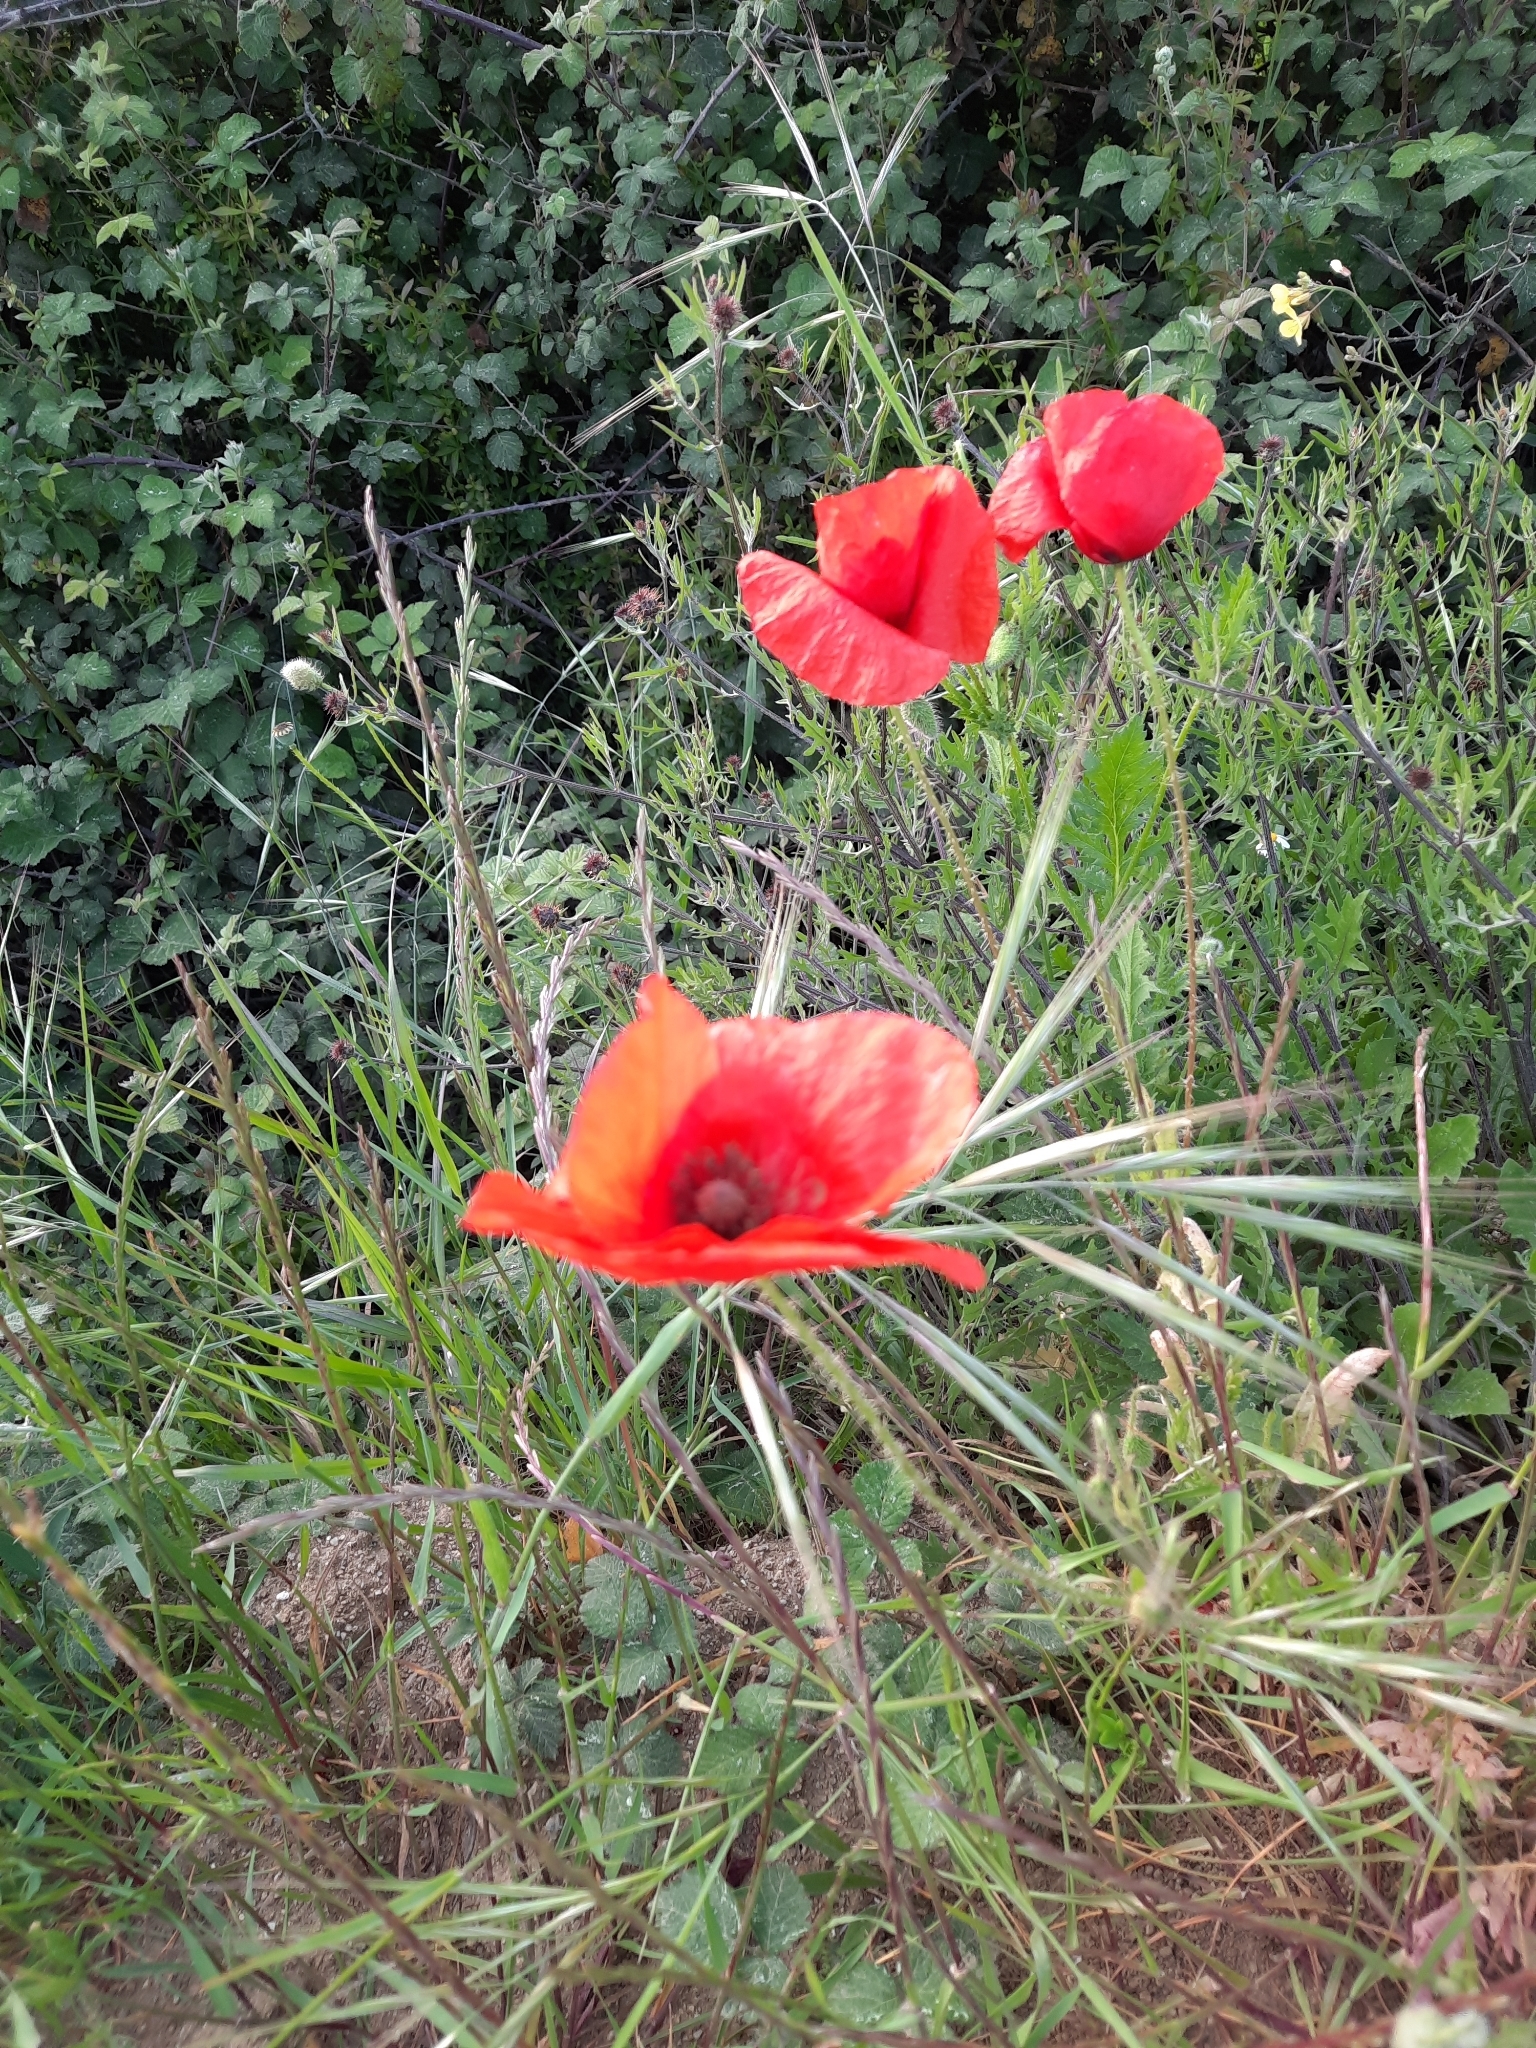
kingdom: Plantae
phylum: Tracheophyta
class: Magnoliopsida
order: Ranunculales
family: Papaveraceae
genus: Papaver
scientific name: Papaver rhoeas
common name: Corn poppy
